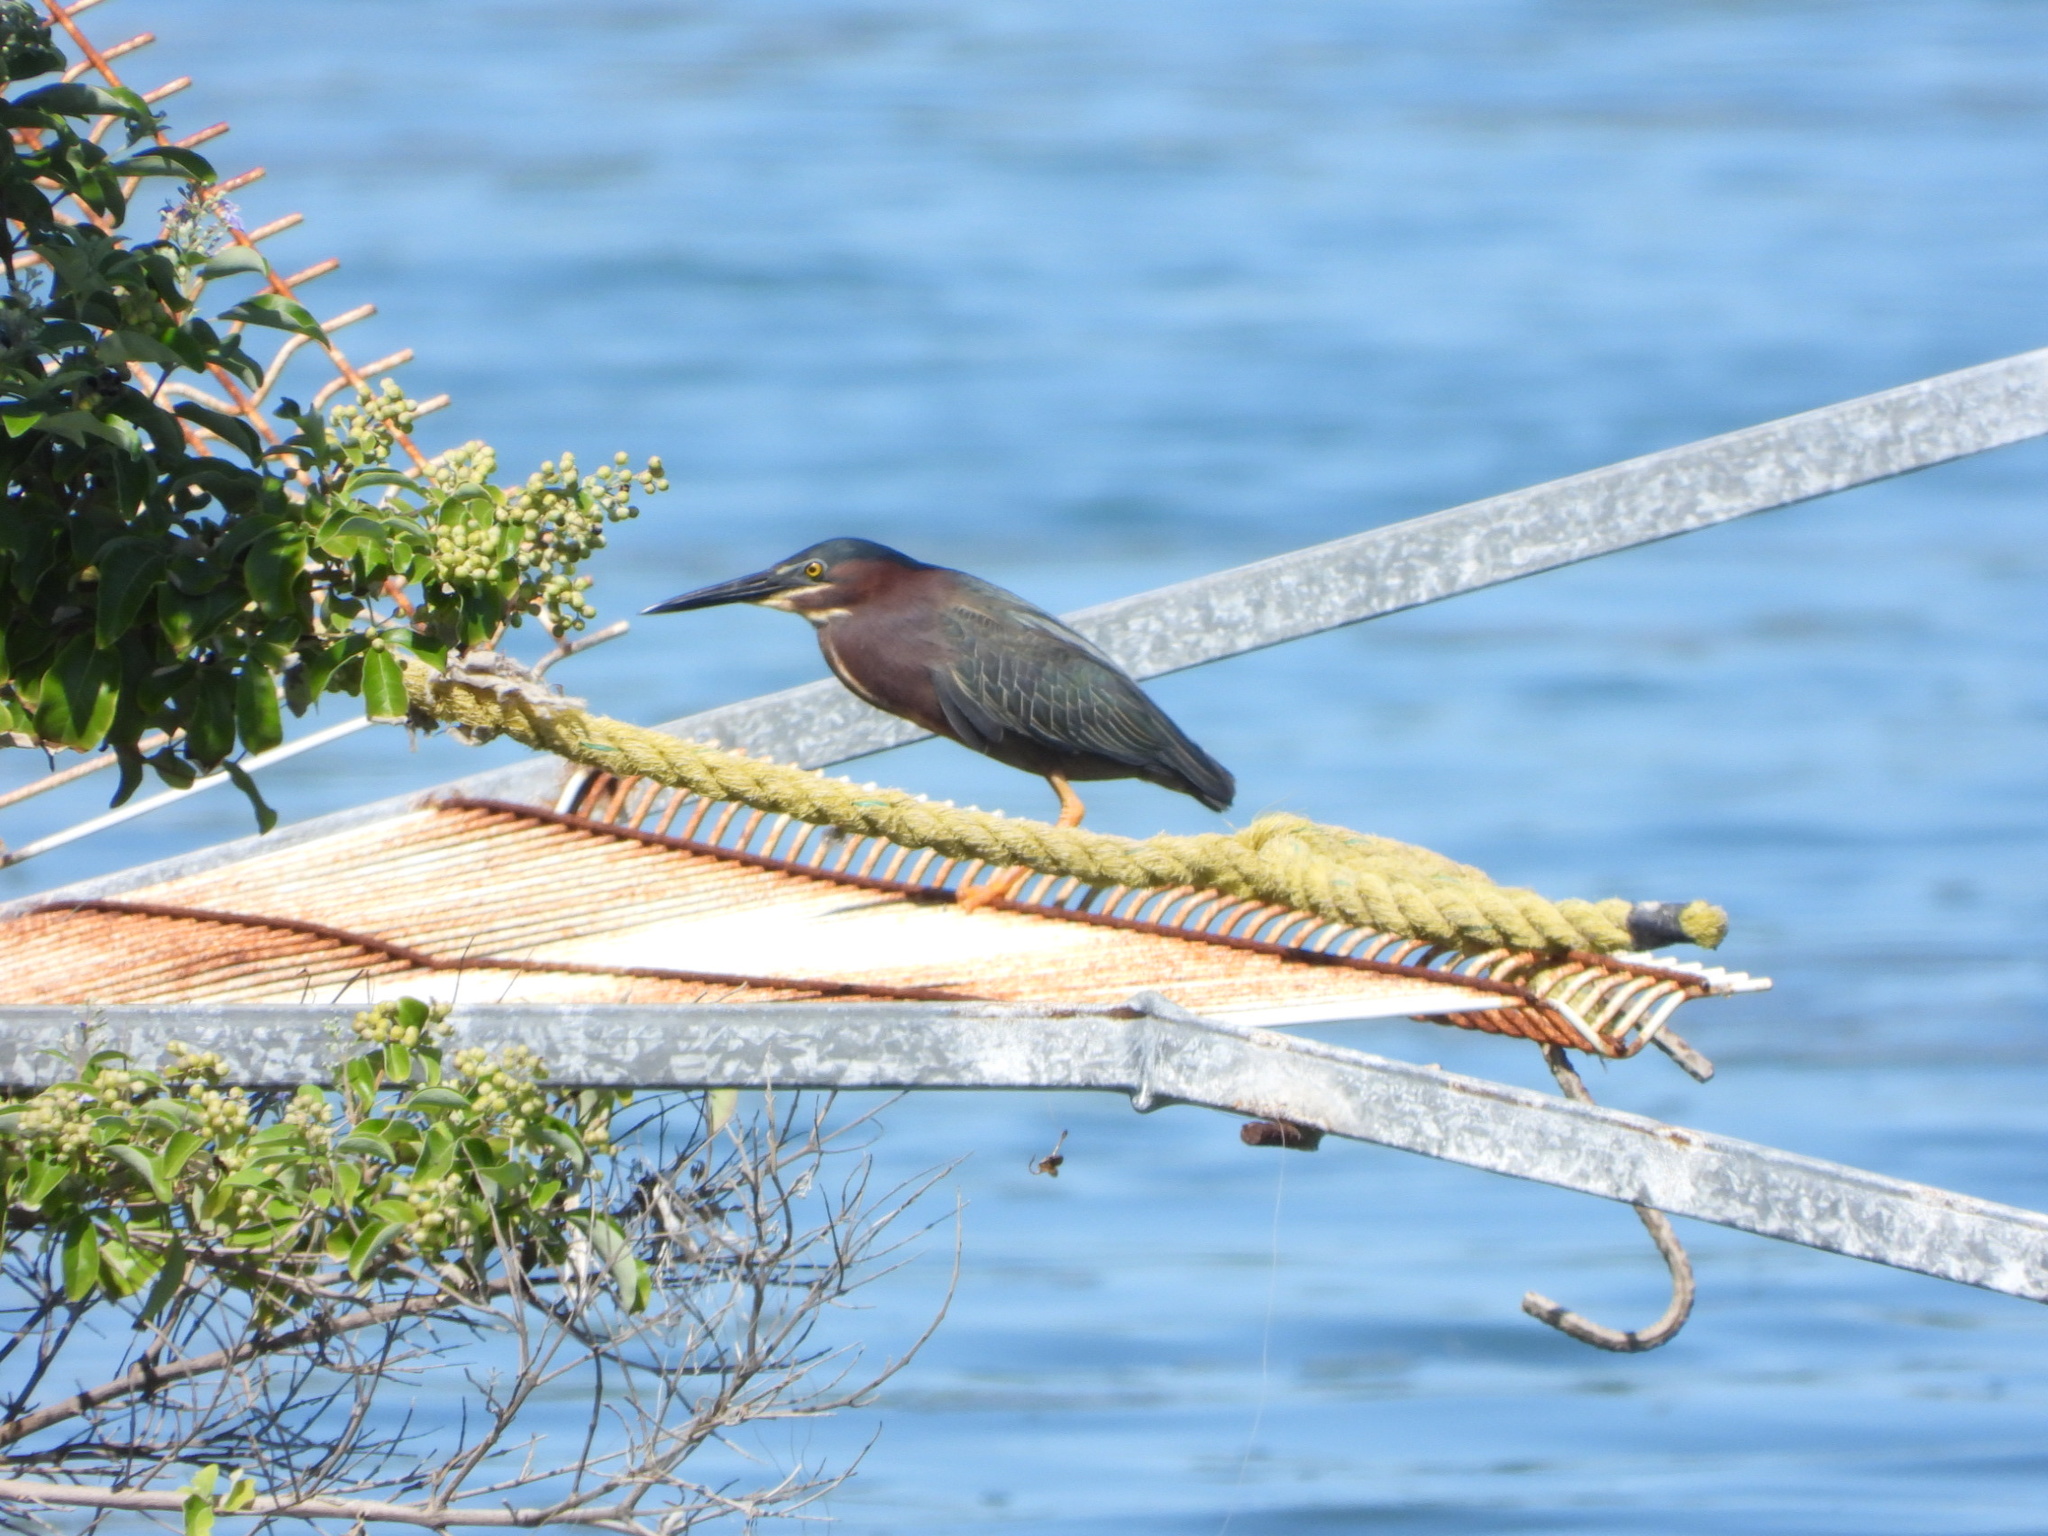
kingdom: Animalia
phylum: Chordata
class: Aves
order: Pelecaniformes
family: Ardeidae
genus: Butorides
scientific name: Butorides virescens
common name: Green heron
